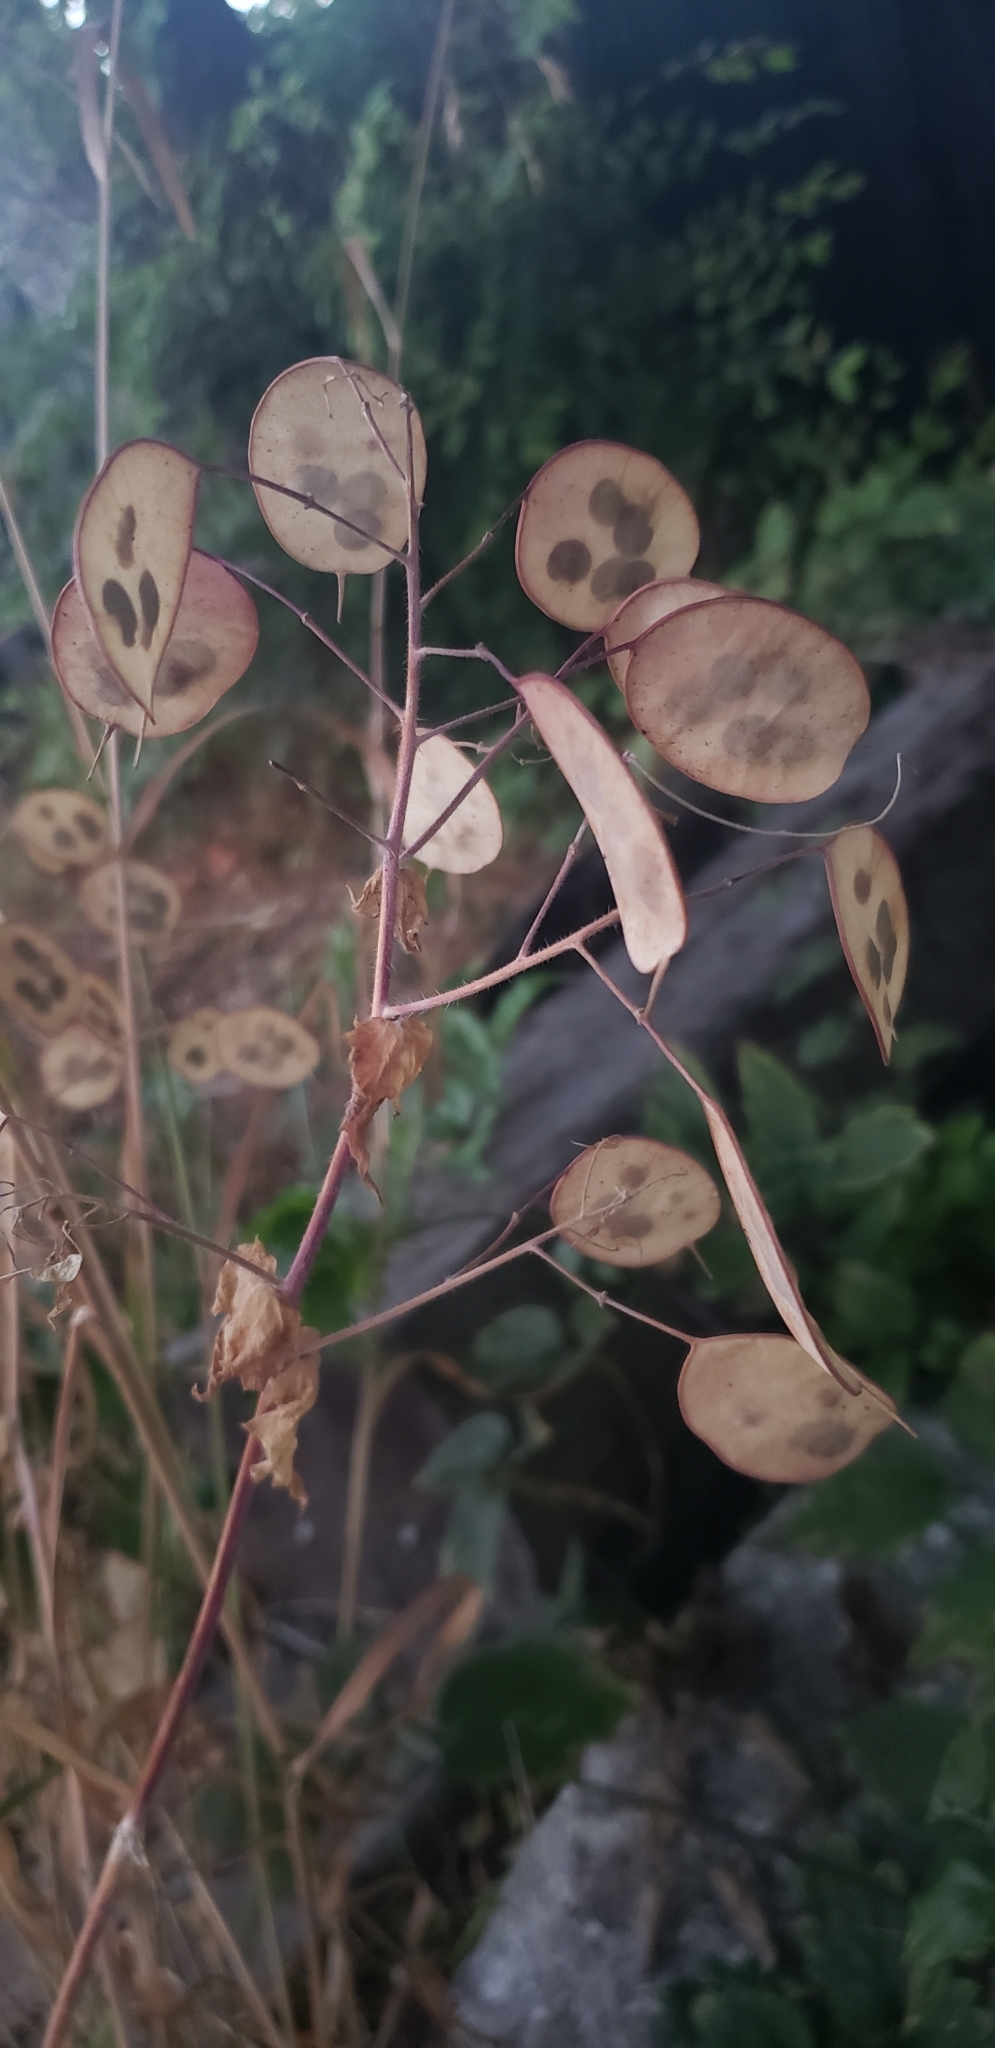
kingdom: Plantae
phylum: Tracheophyta
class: Magnoliopsida
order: Brassicales
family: Brassicaceae
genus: Lunaria
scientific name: Lunaria annua
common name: Honesty
